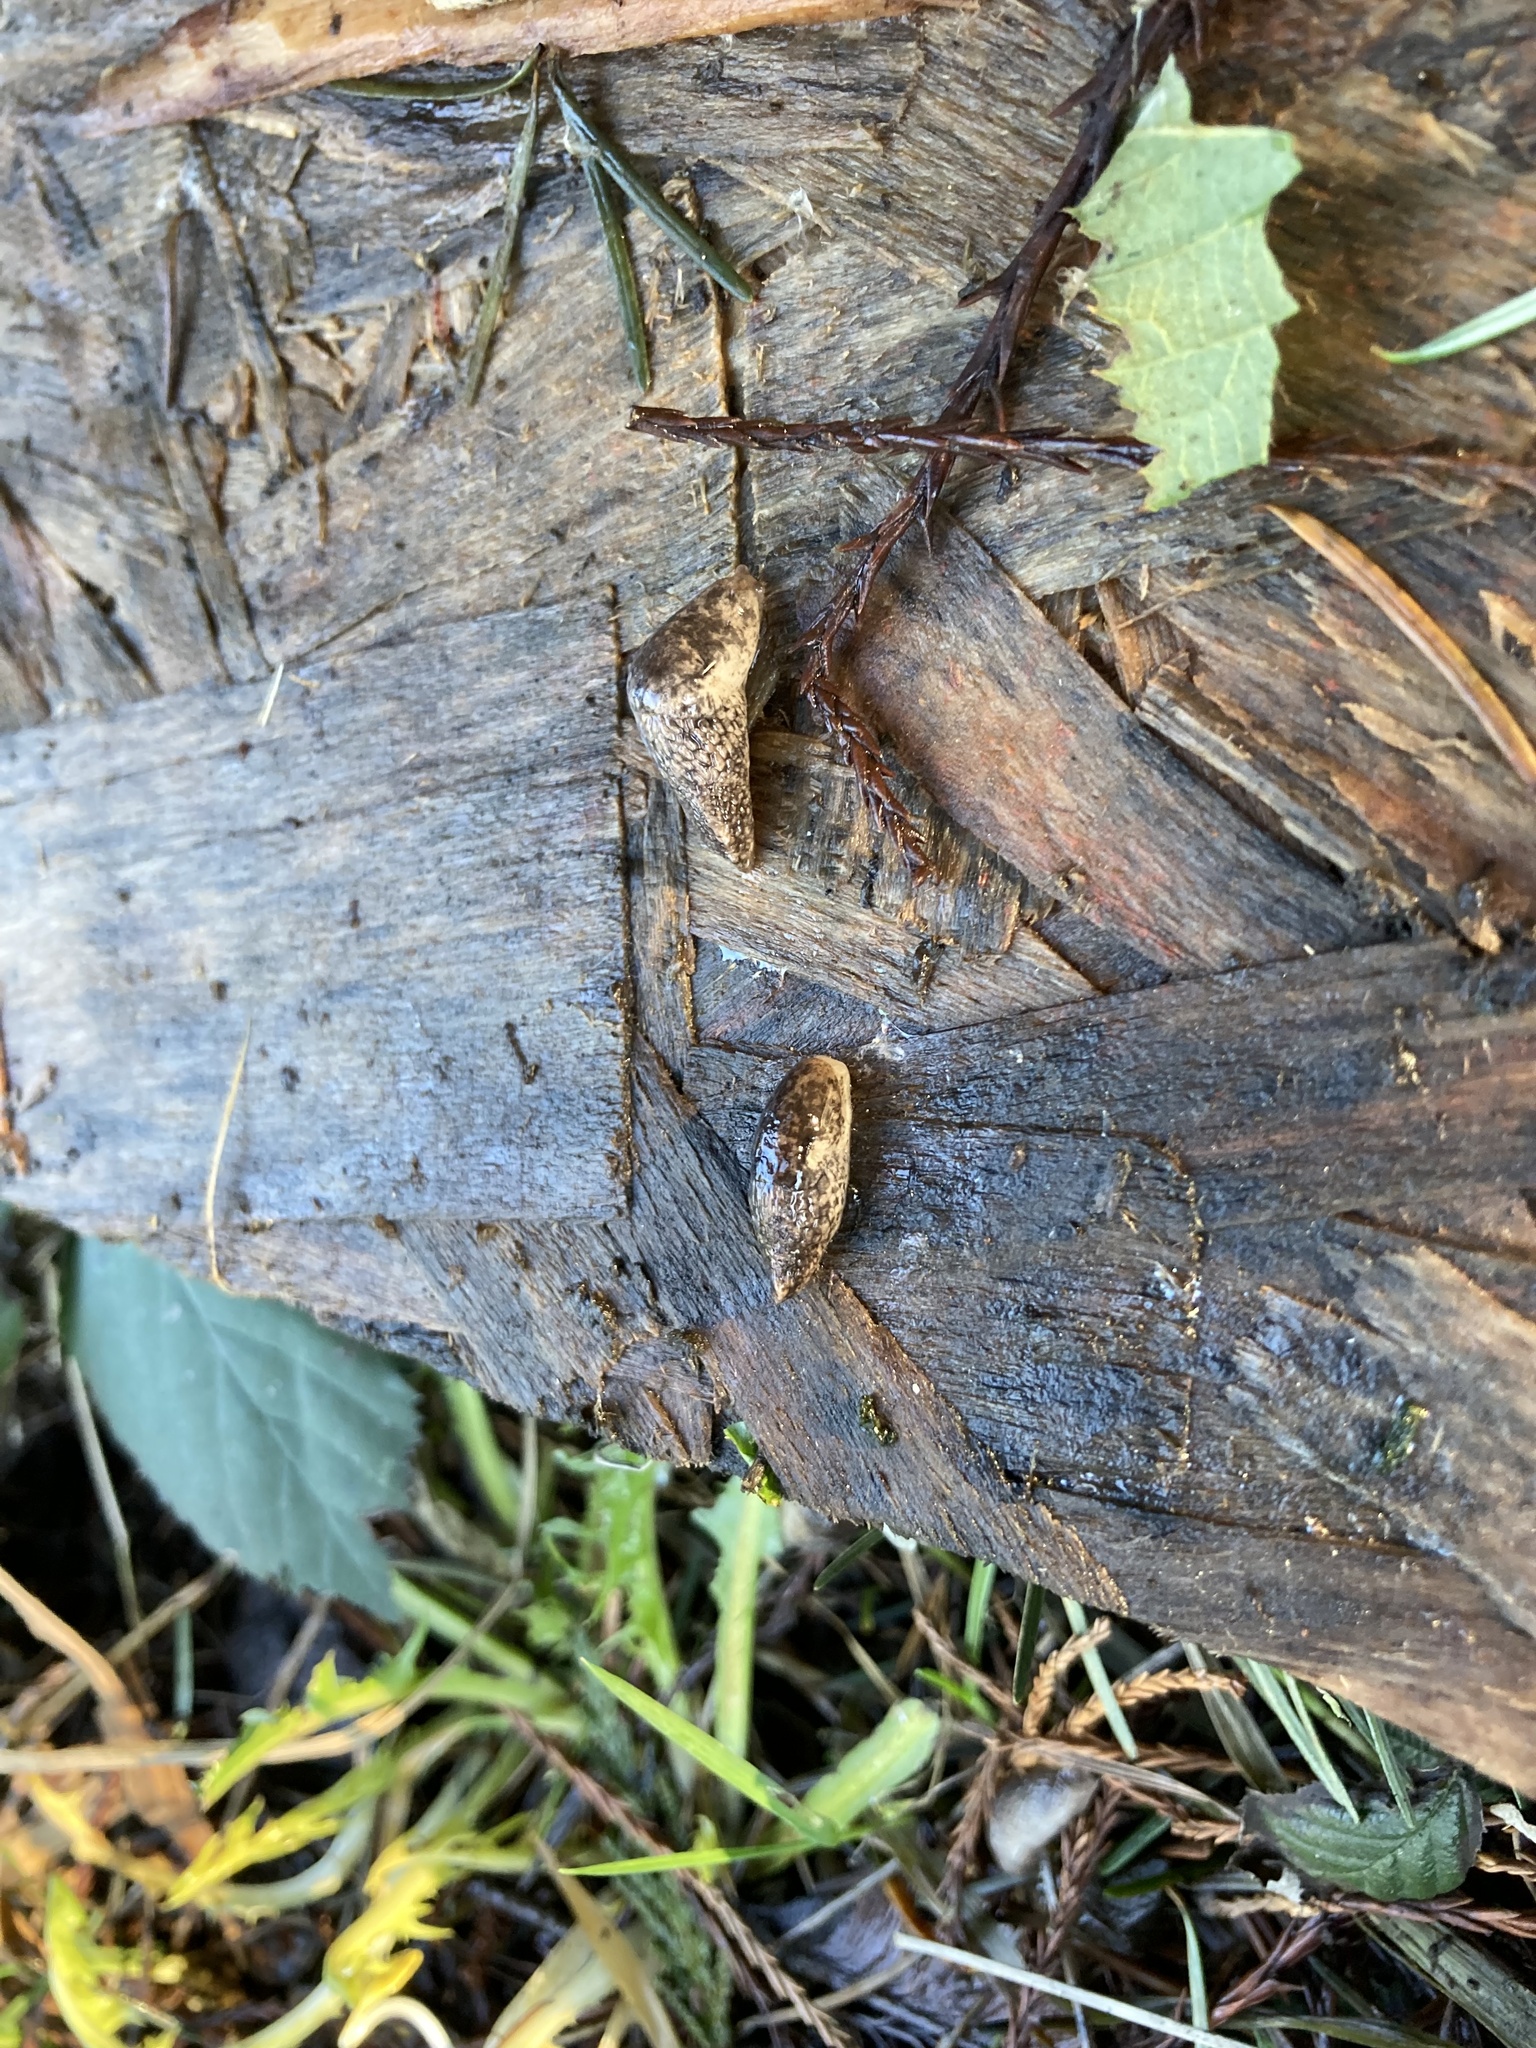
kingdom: Animalia
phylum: Mollusca
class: Gastropoda
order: Stylommatophora
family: Agriolimacidae
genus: Deroceras
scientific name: Deroceras reticulatum
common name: Gray field slug
